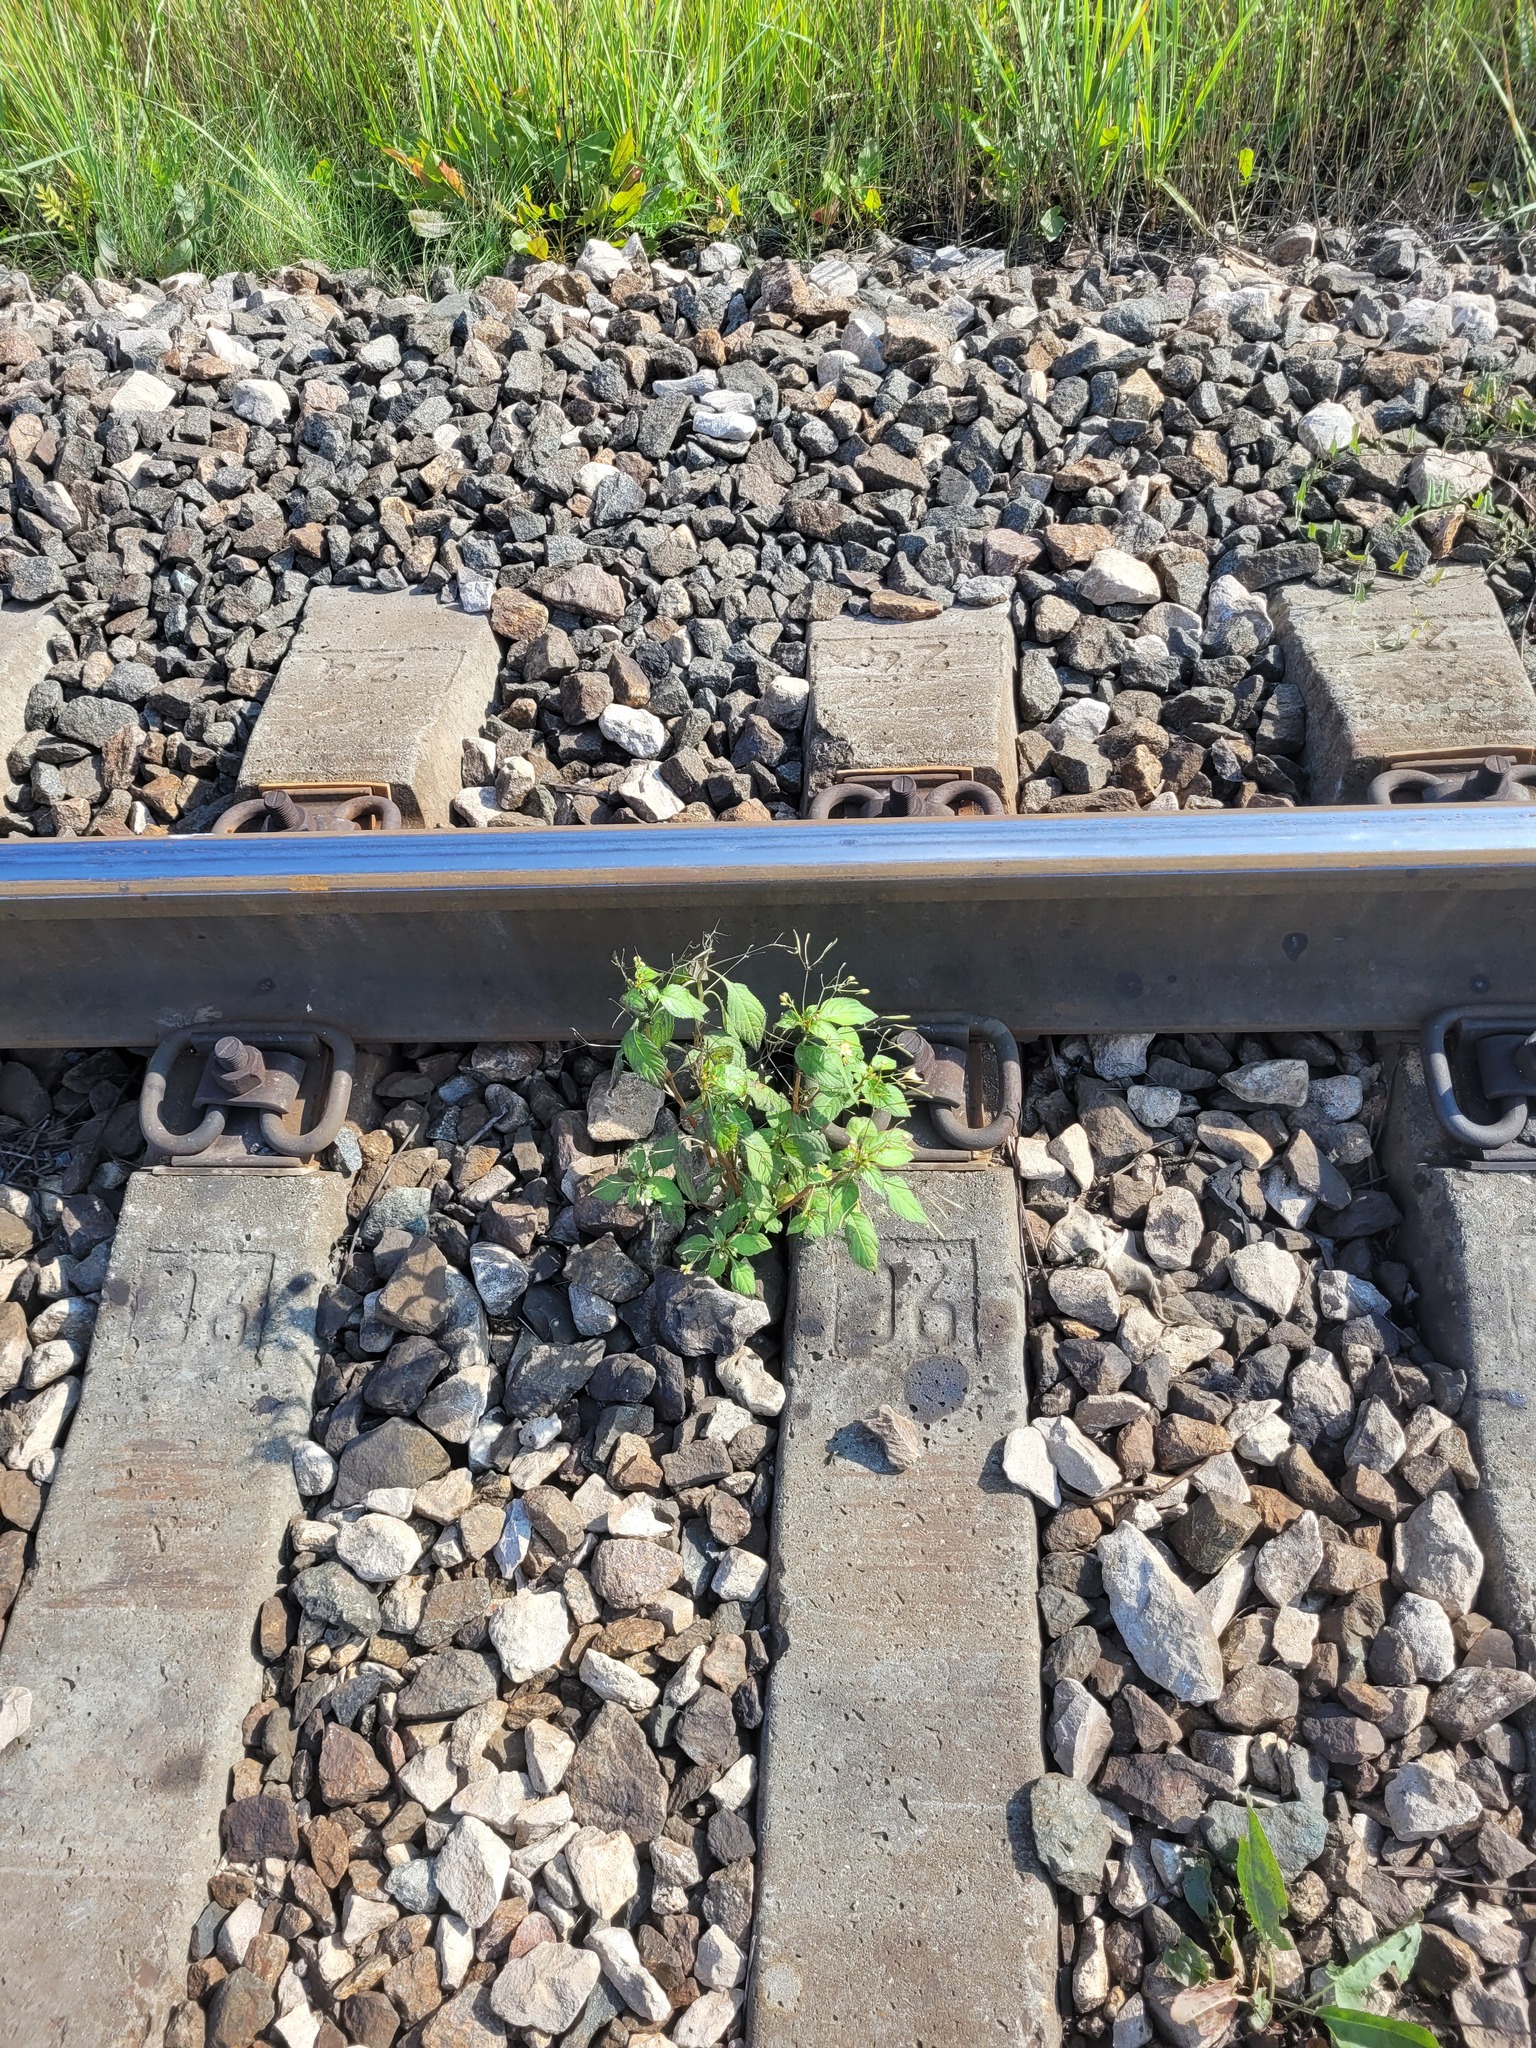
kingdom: Plantae
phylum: Tracheophyta
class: Magnoliopsida
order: Ericales
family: Balsaminaceae
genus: Impatiens
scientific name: Impatiens parviflora
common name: Small balsam
